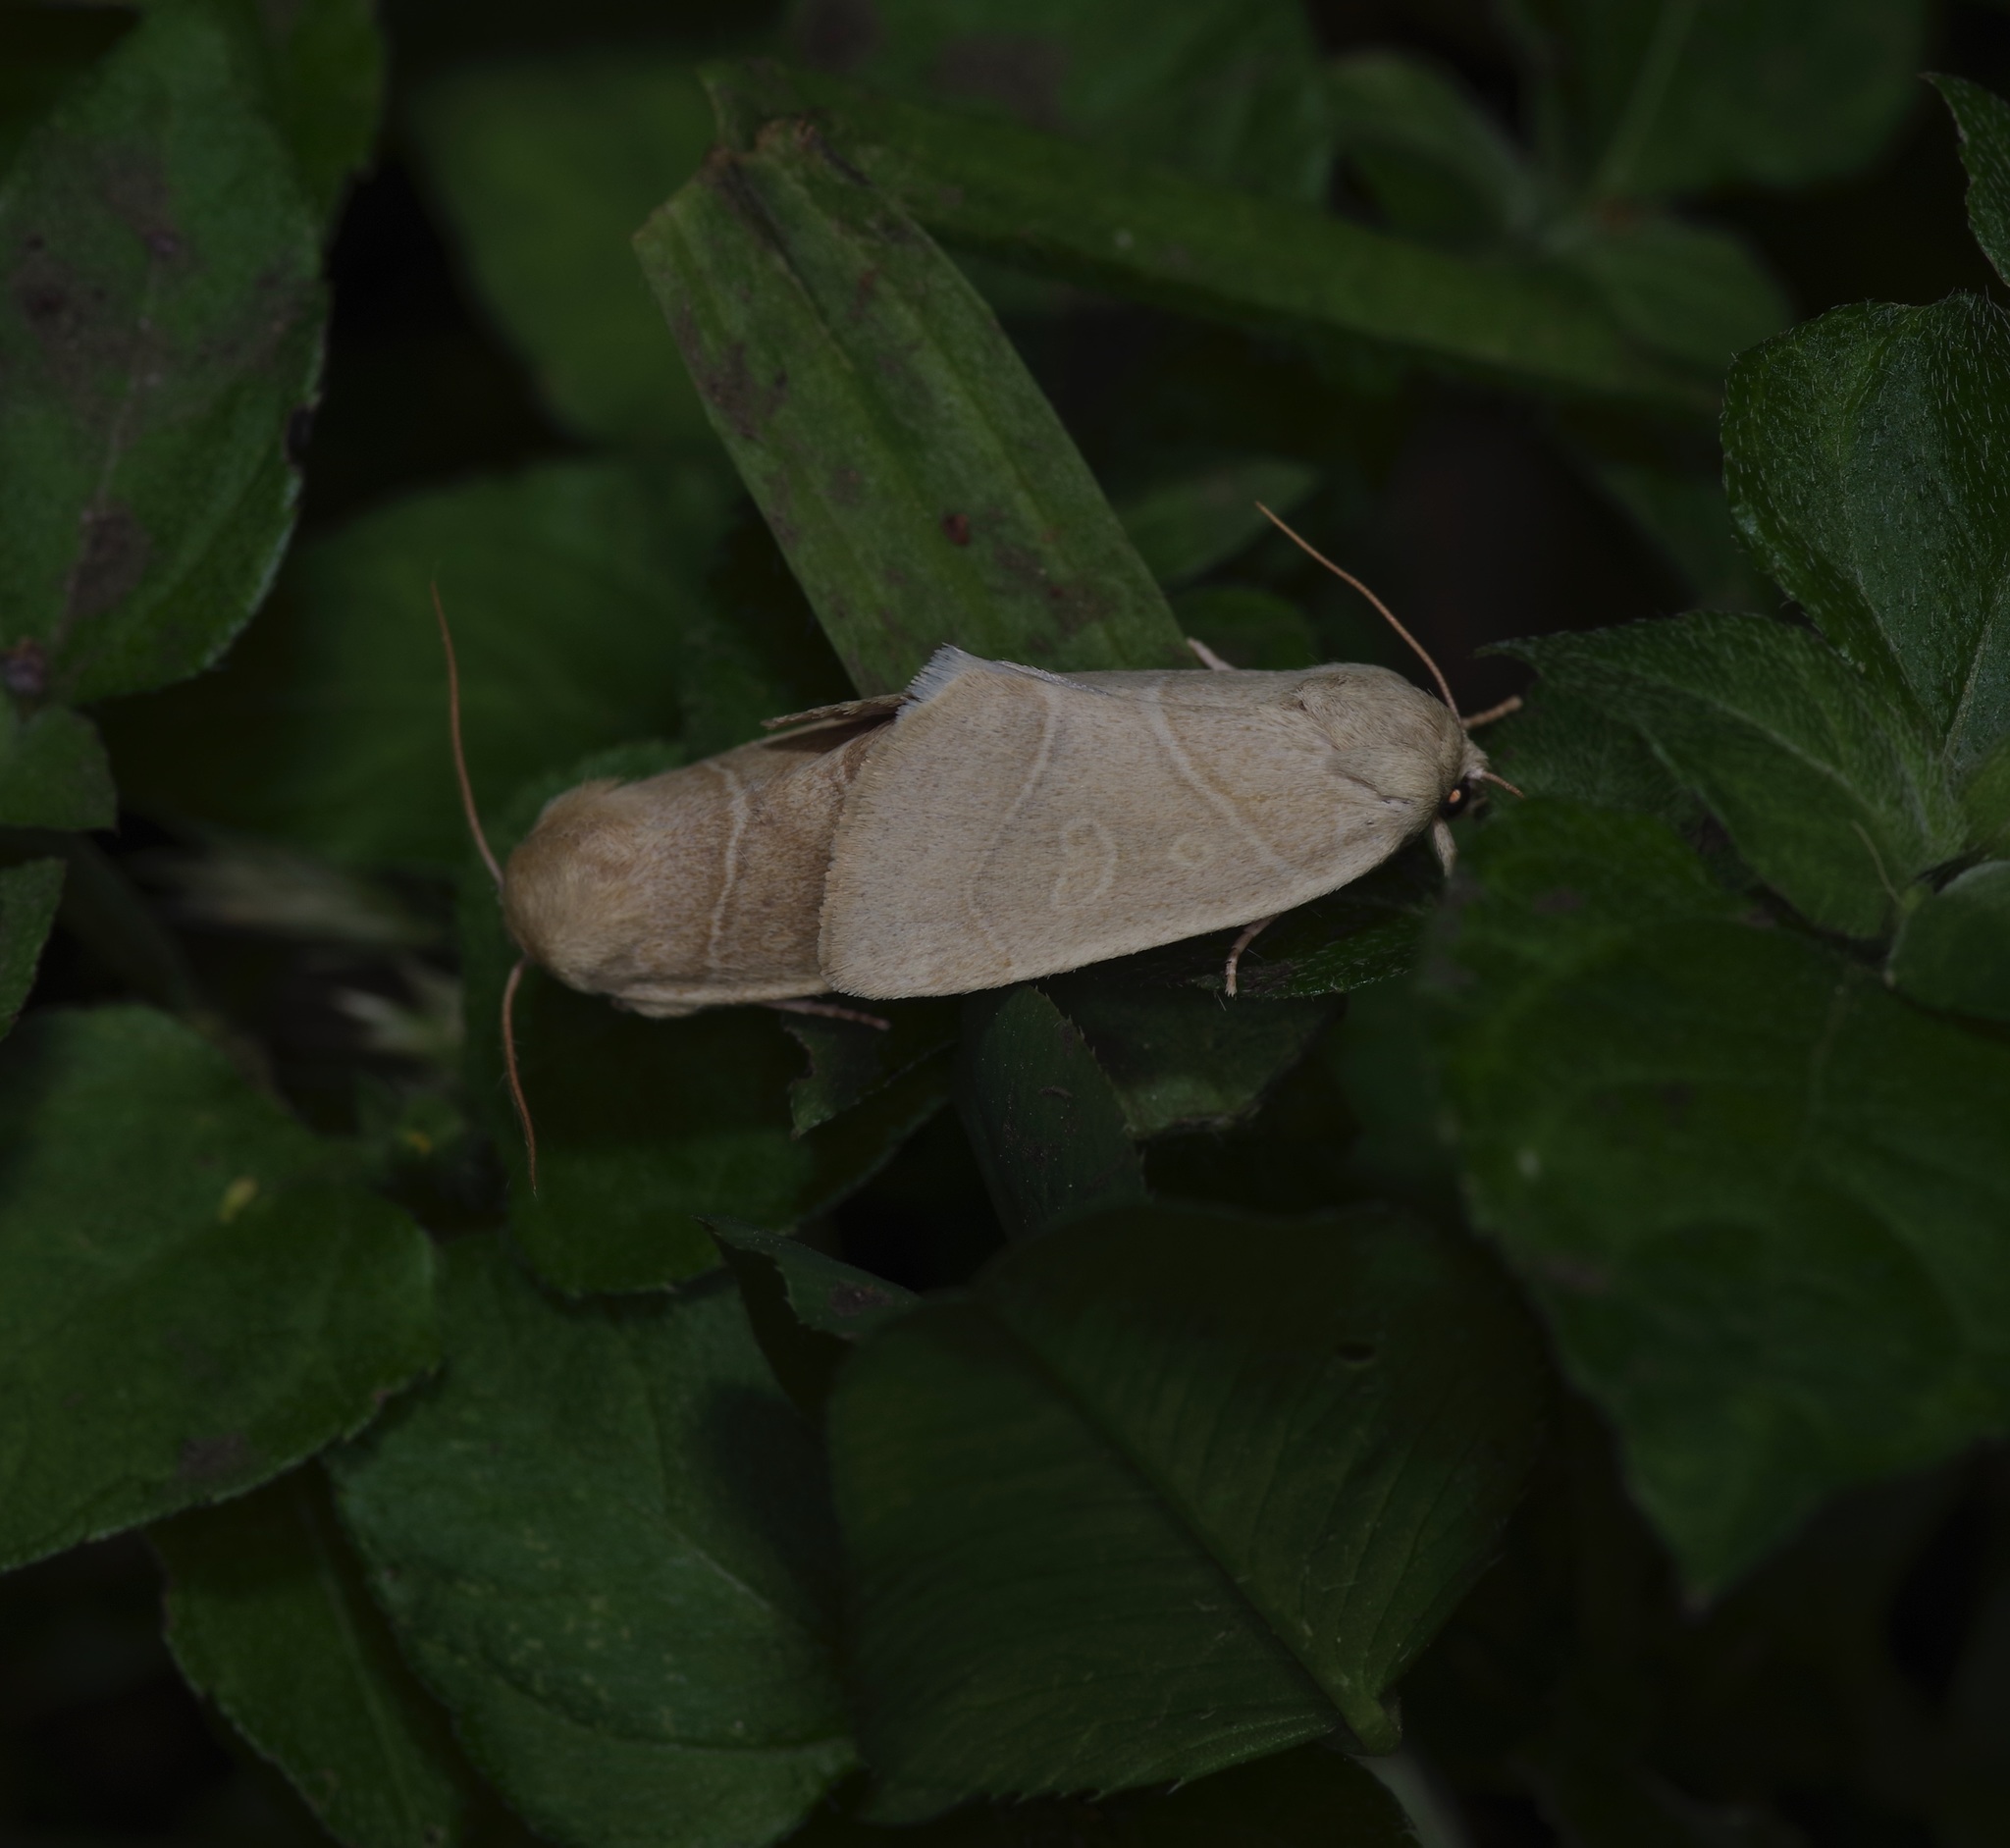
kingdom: Animalia
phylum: Arthropoda
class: Insecta
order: Lepidoptera
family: Noctuidae
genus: Cosmia
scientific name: Cosmia calami
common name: American dun-bar moth
